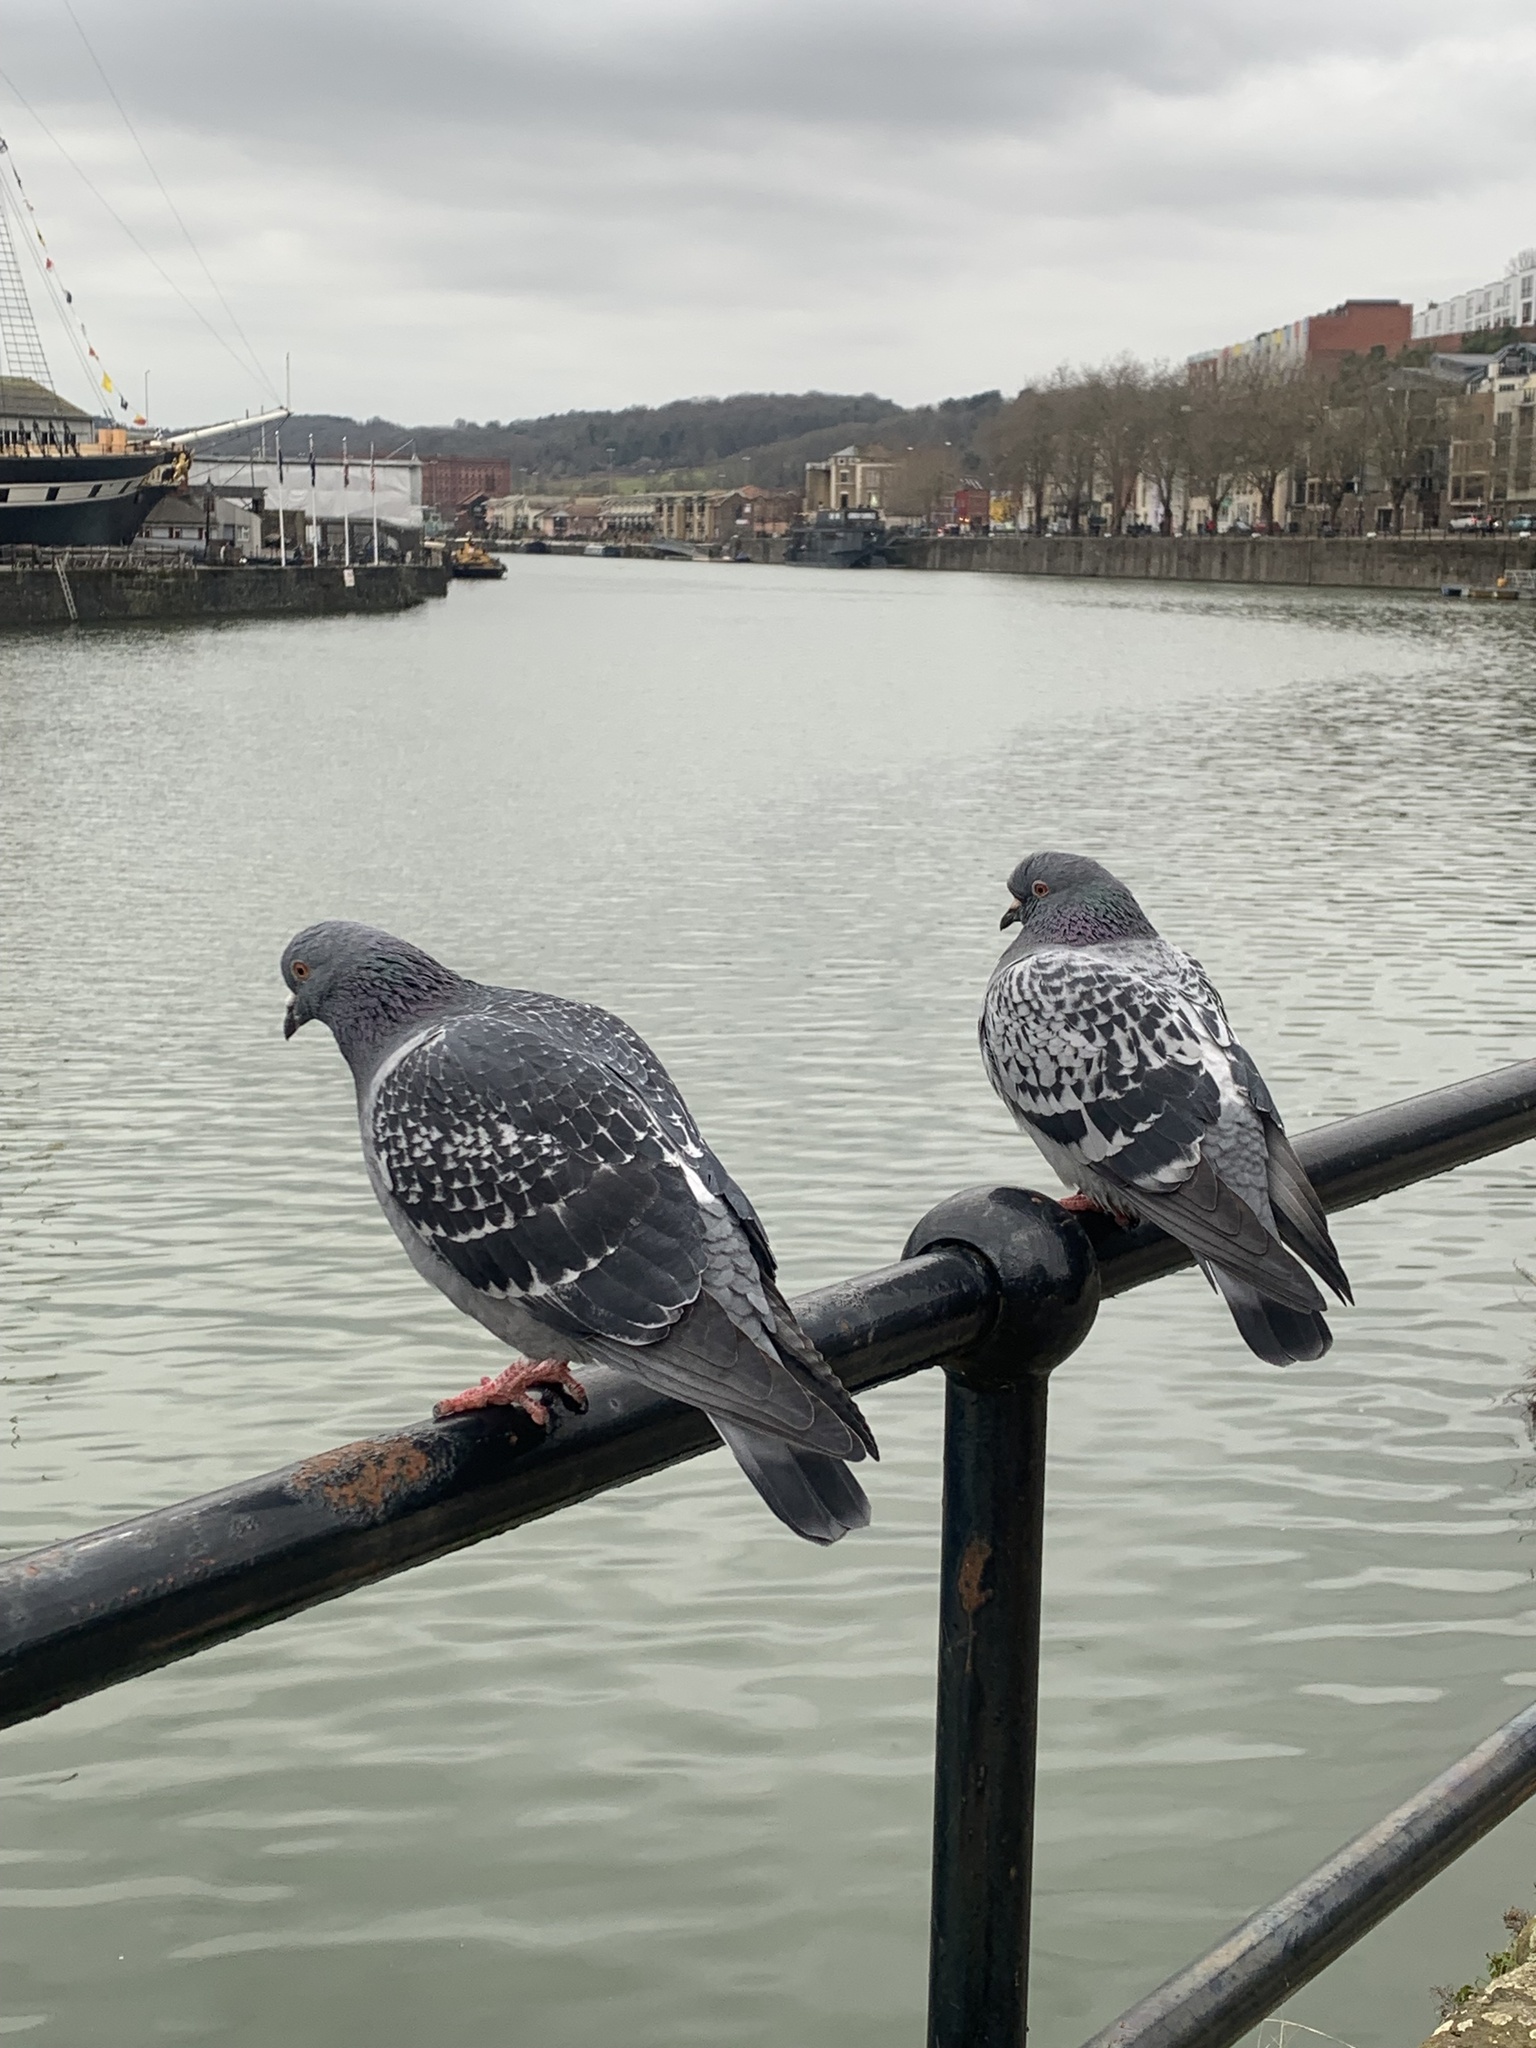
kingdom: Animalia
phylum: Chordata
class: Aves
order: Columbiformes
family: Columbidae
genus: Columba
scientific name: Columba livia
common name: Rock pigeon
